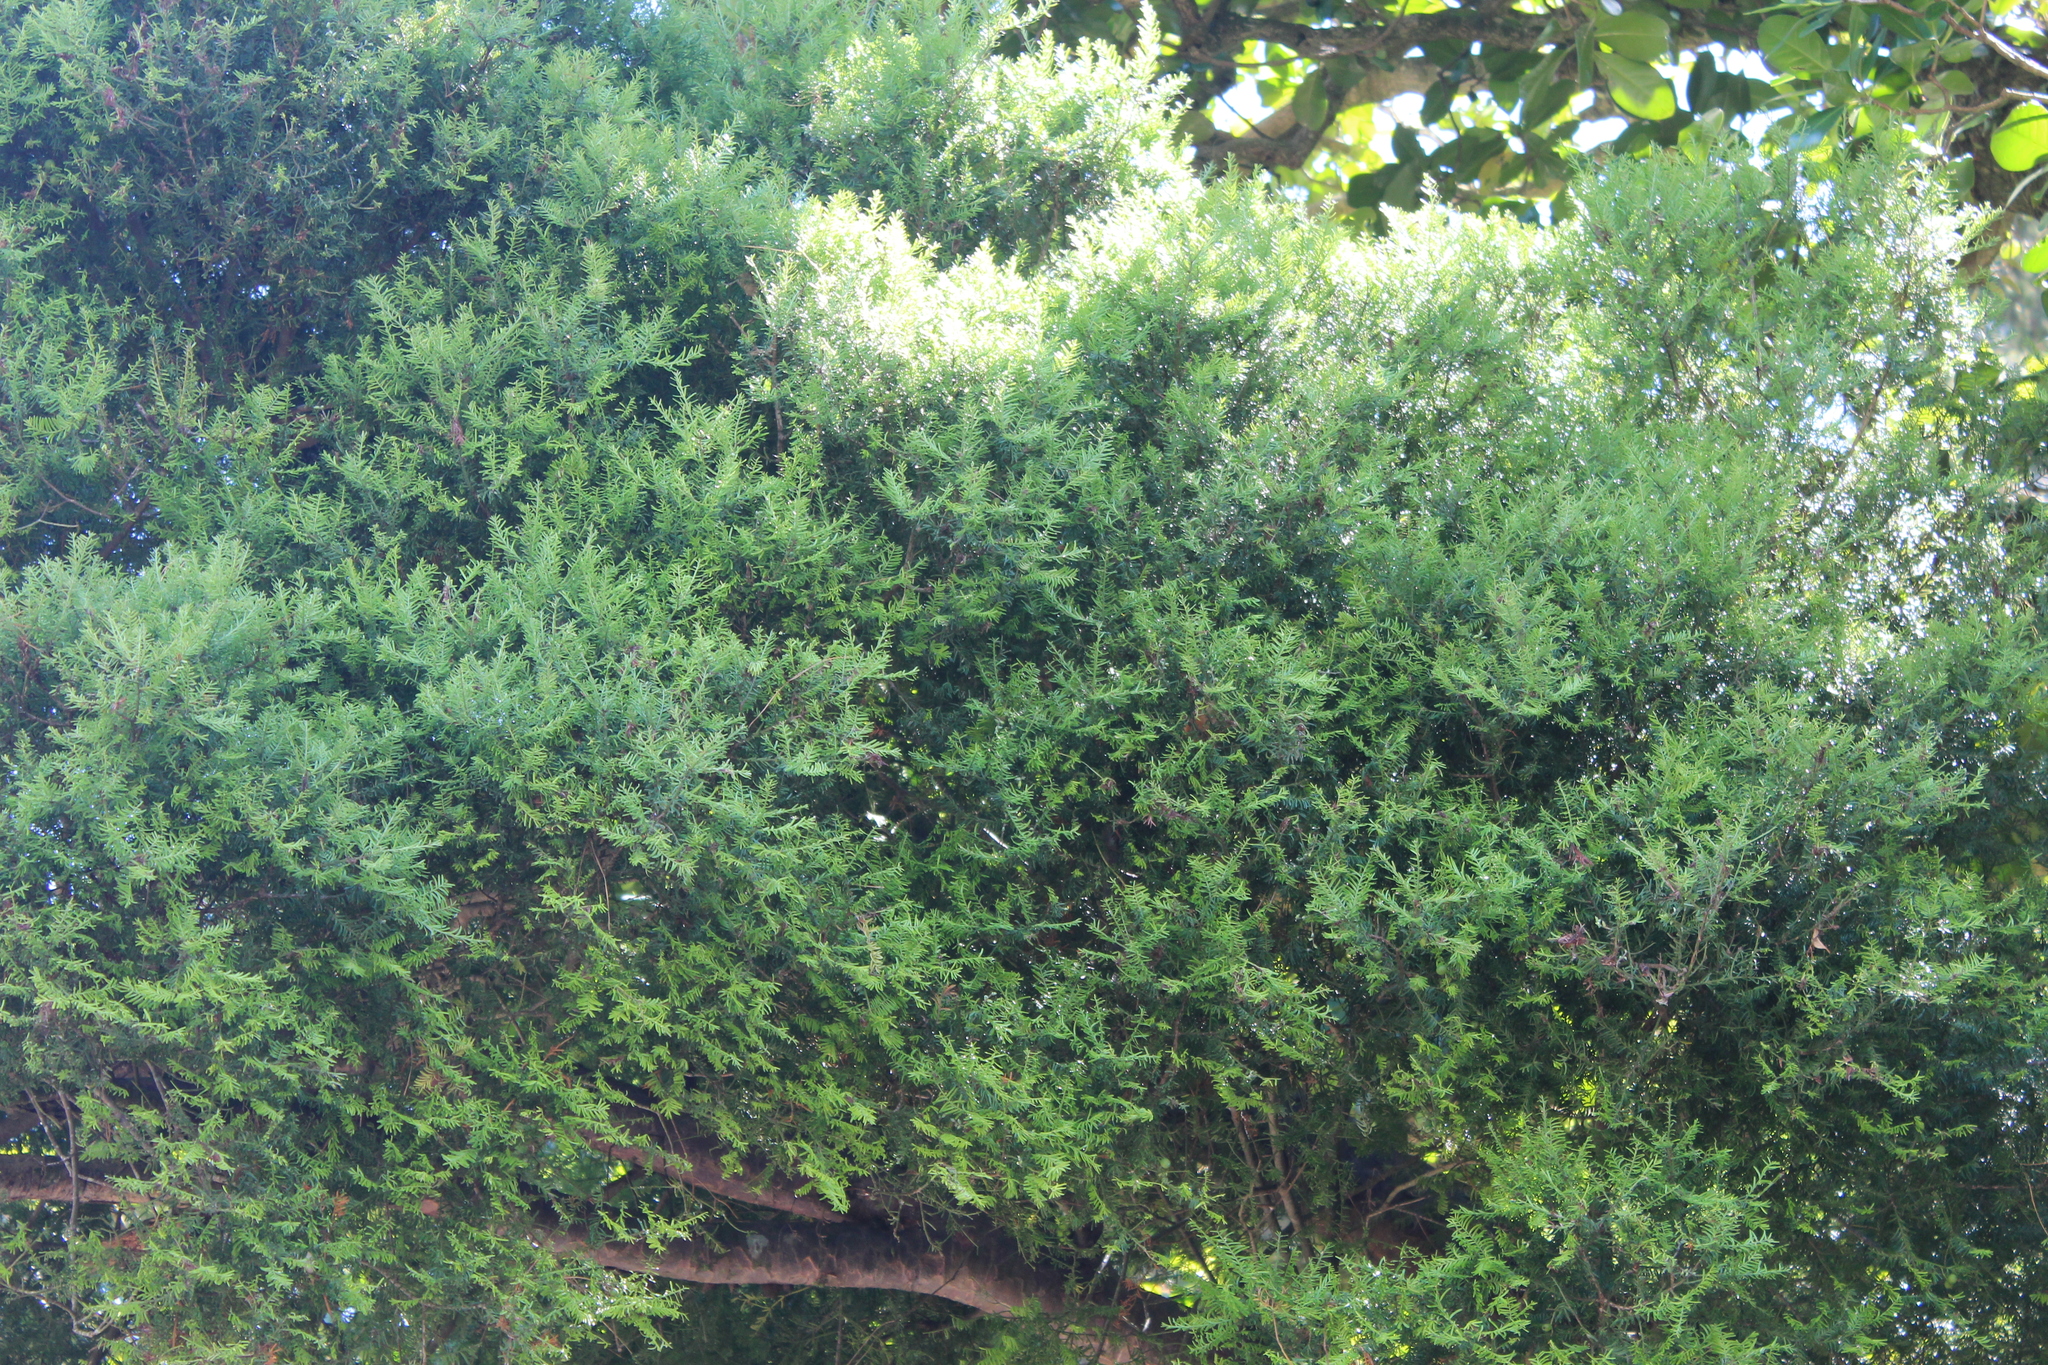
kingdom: Plantae
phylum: Tracheophyta
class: Pinopsida
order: Pinales
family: Podocarpaceae
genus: Prumnopitys
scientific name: Prumnopitys taxifolia
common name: Matai
